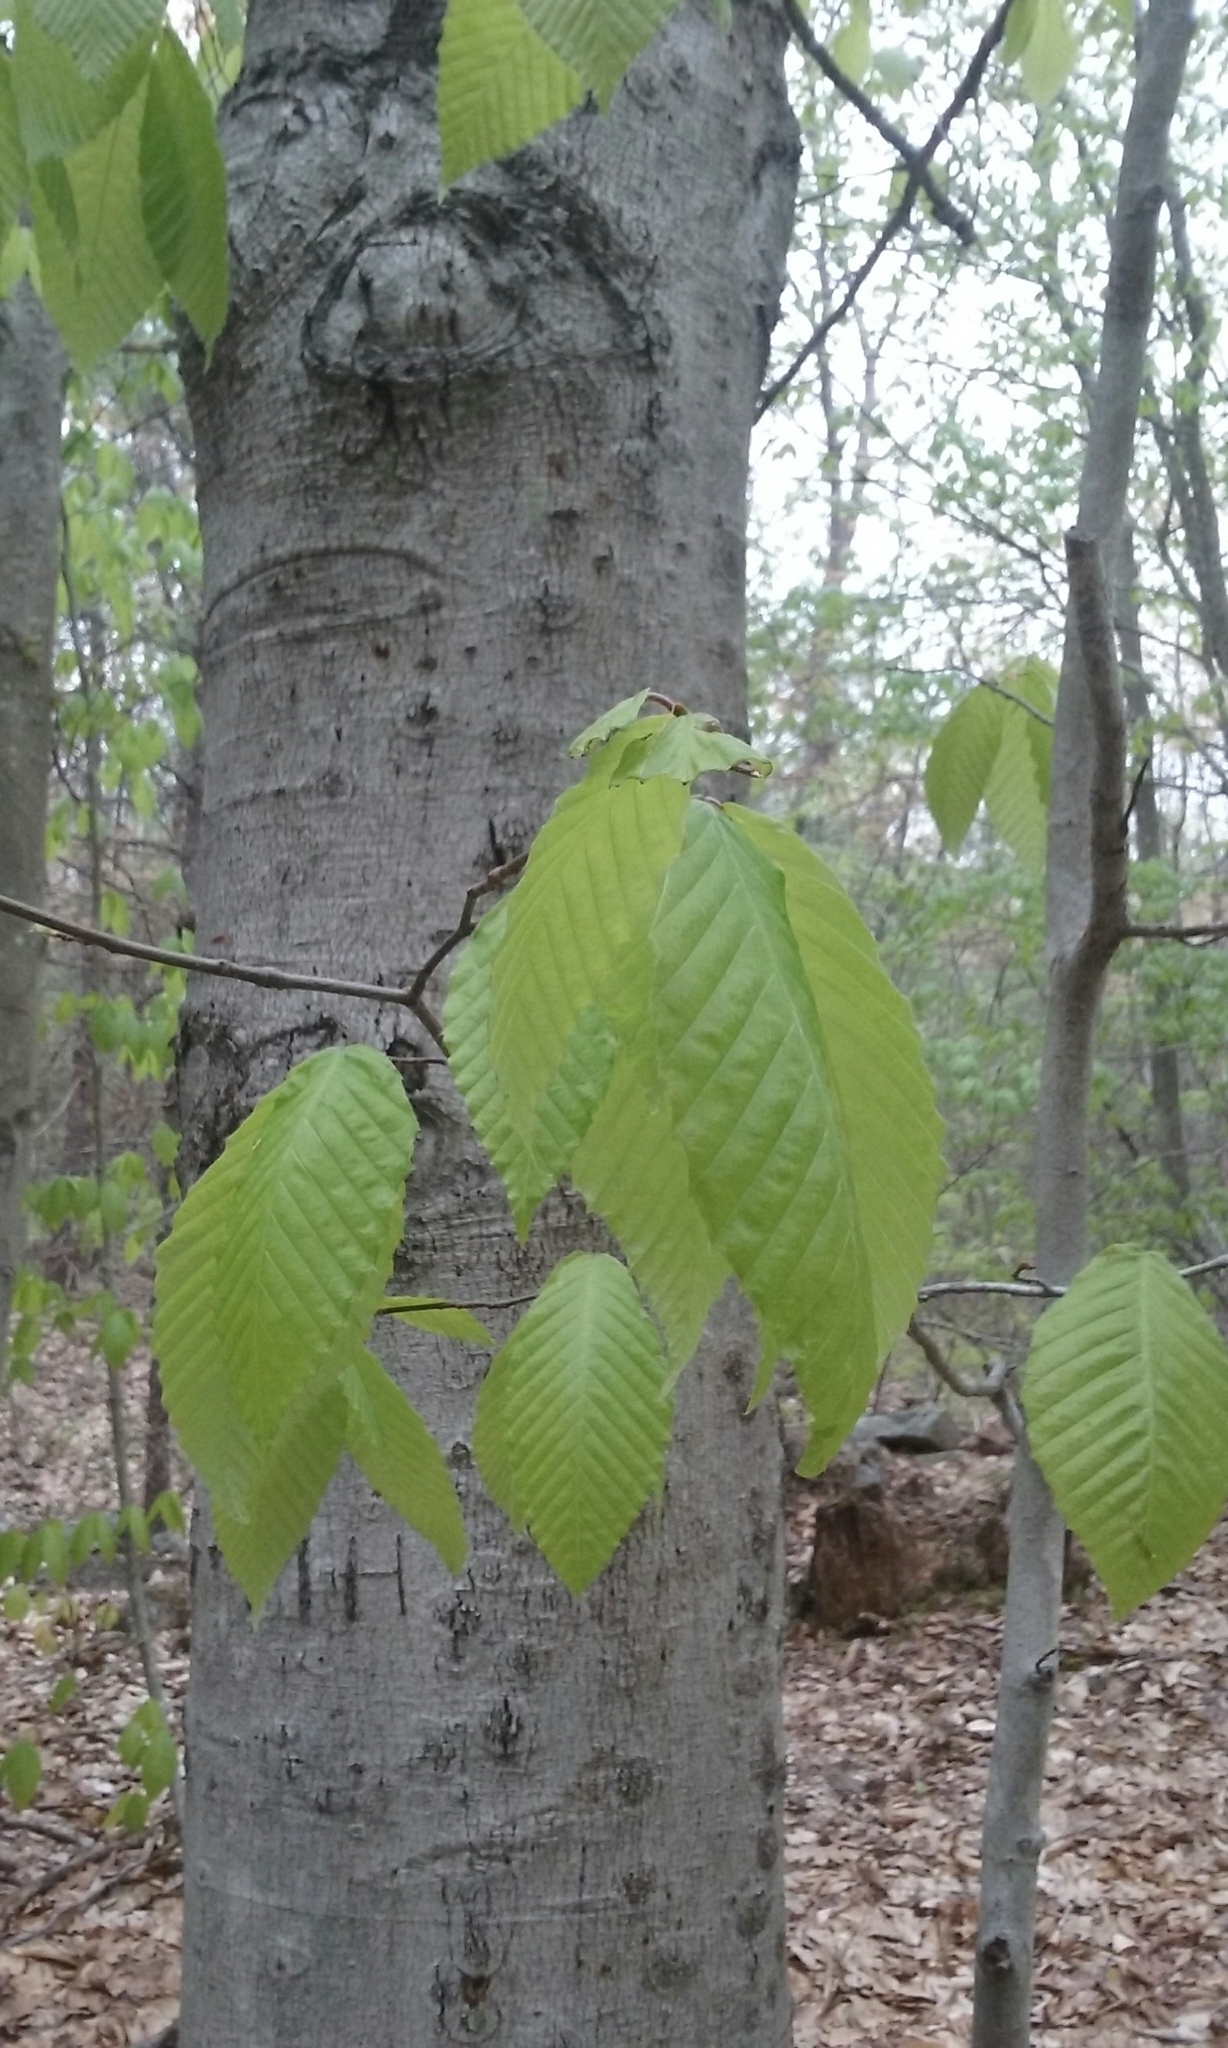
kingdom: Plantae
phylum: Tracheophyta
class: Magnoliopsida
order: Fagales
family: Fagaceae
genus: Fagus
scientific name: Fagus grandifolia
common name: American beech
